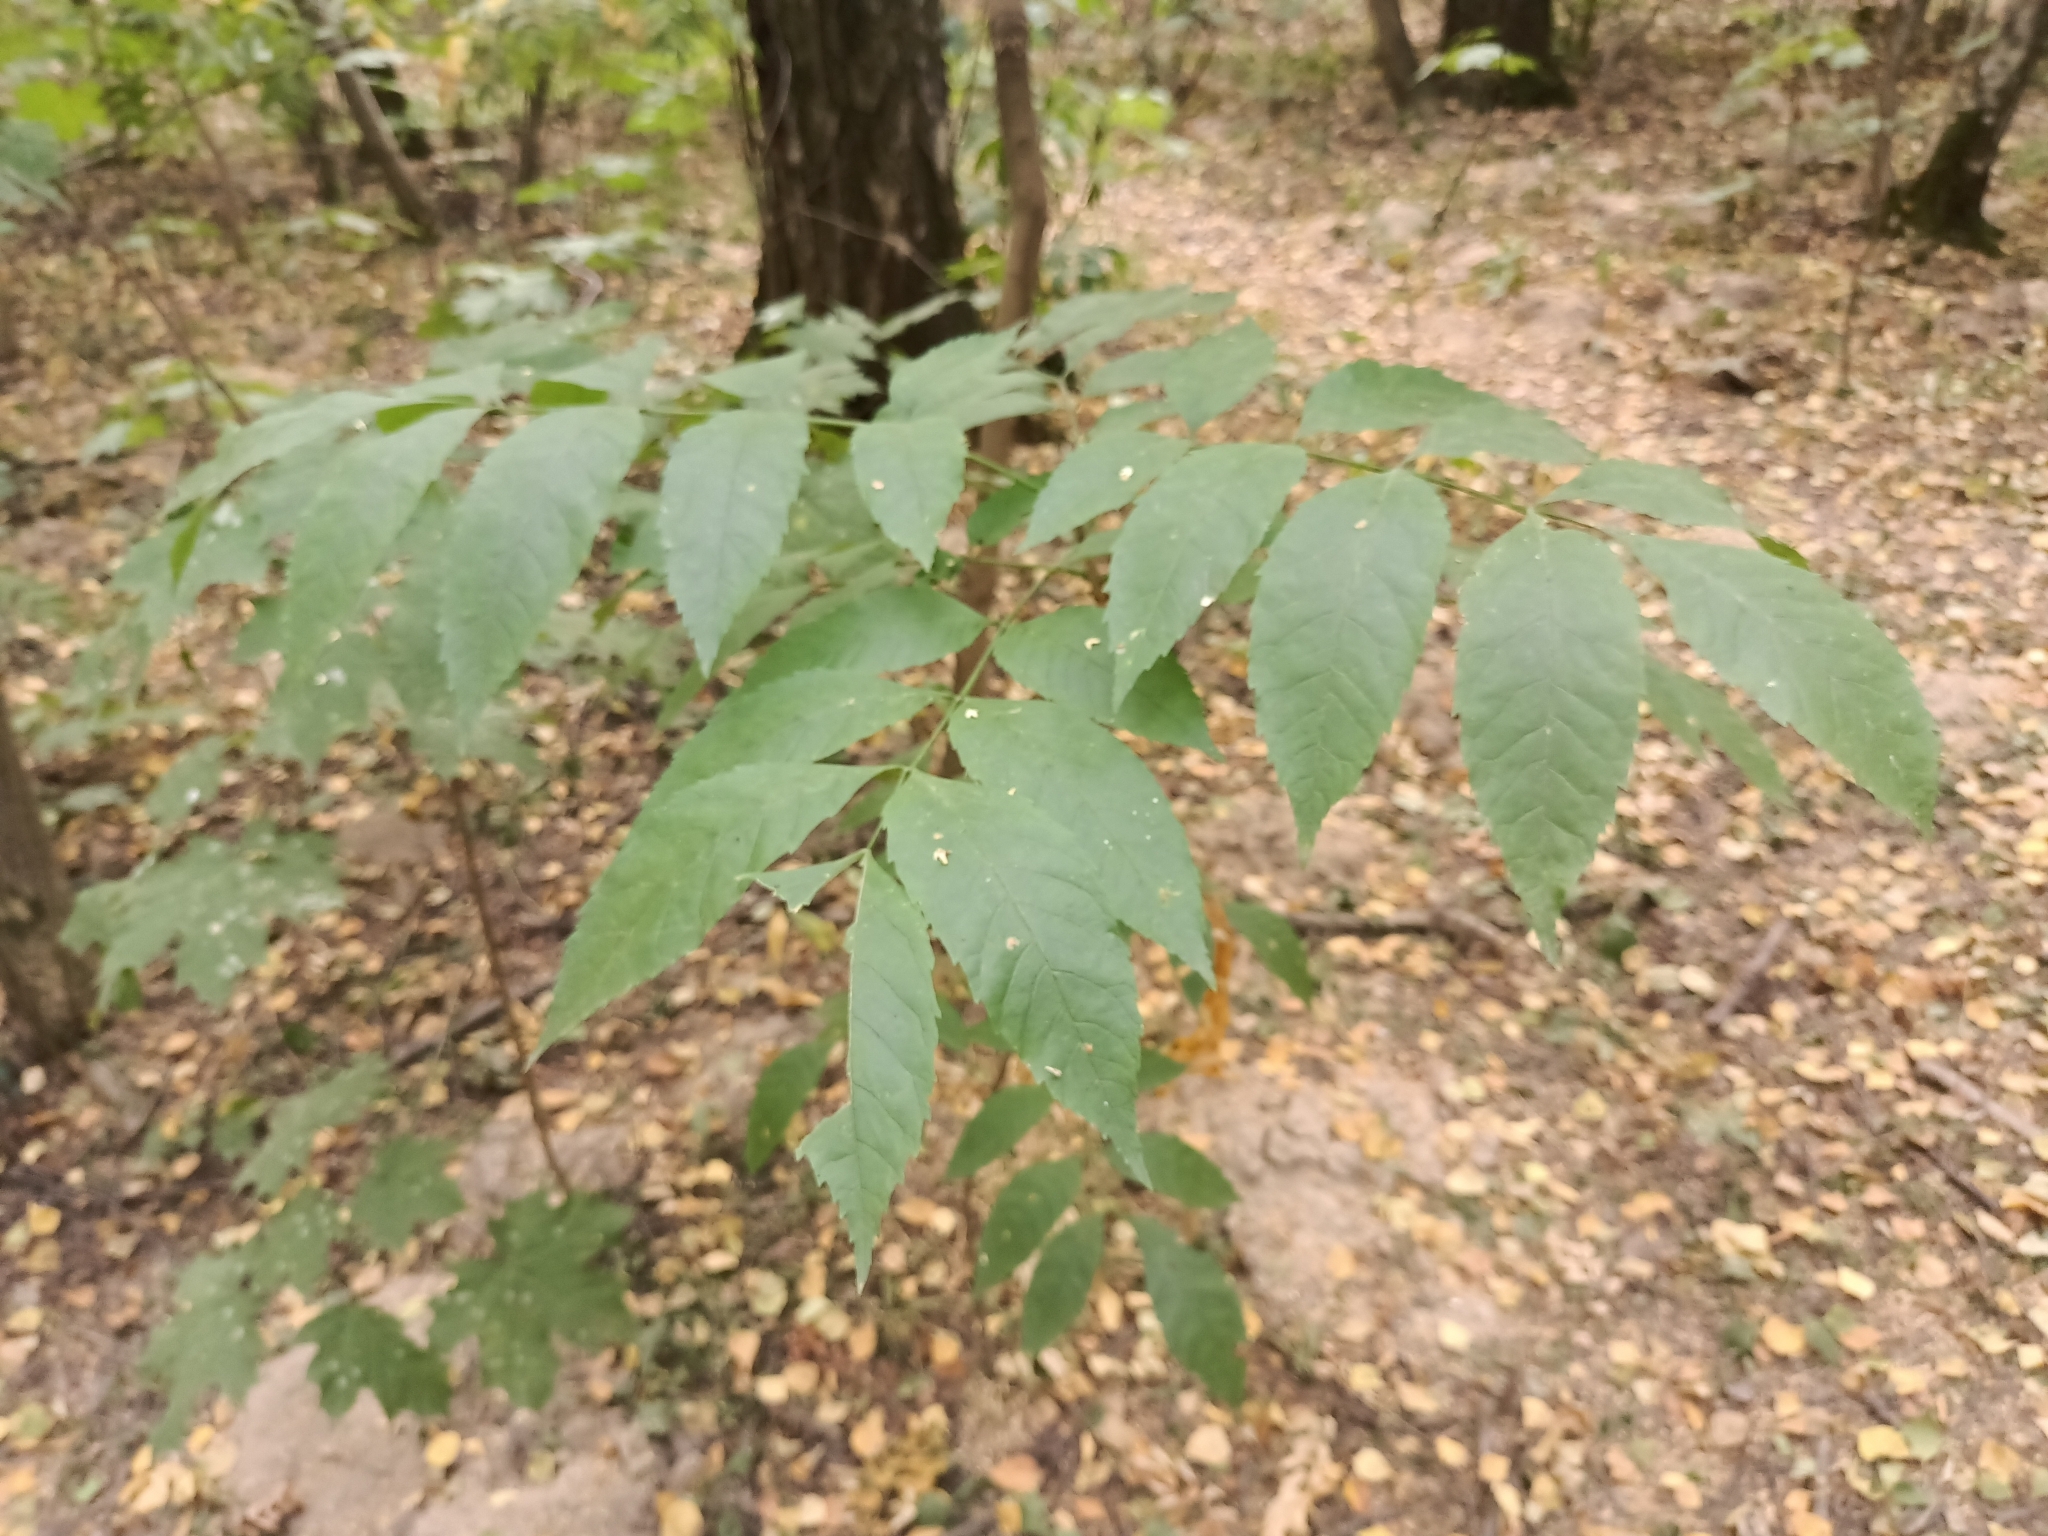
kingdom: Plantae
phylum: Tracheophyta
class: Magnoliopsida
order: Lamiales
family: Oleaceae
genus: Fraxinus
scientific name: Fraxinus excelsior
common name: European ash
